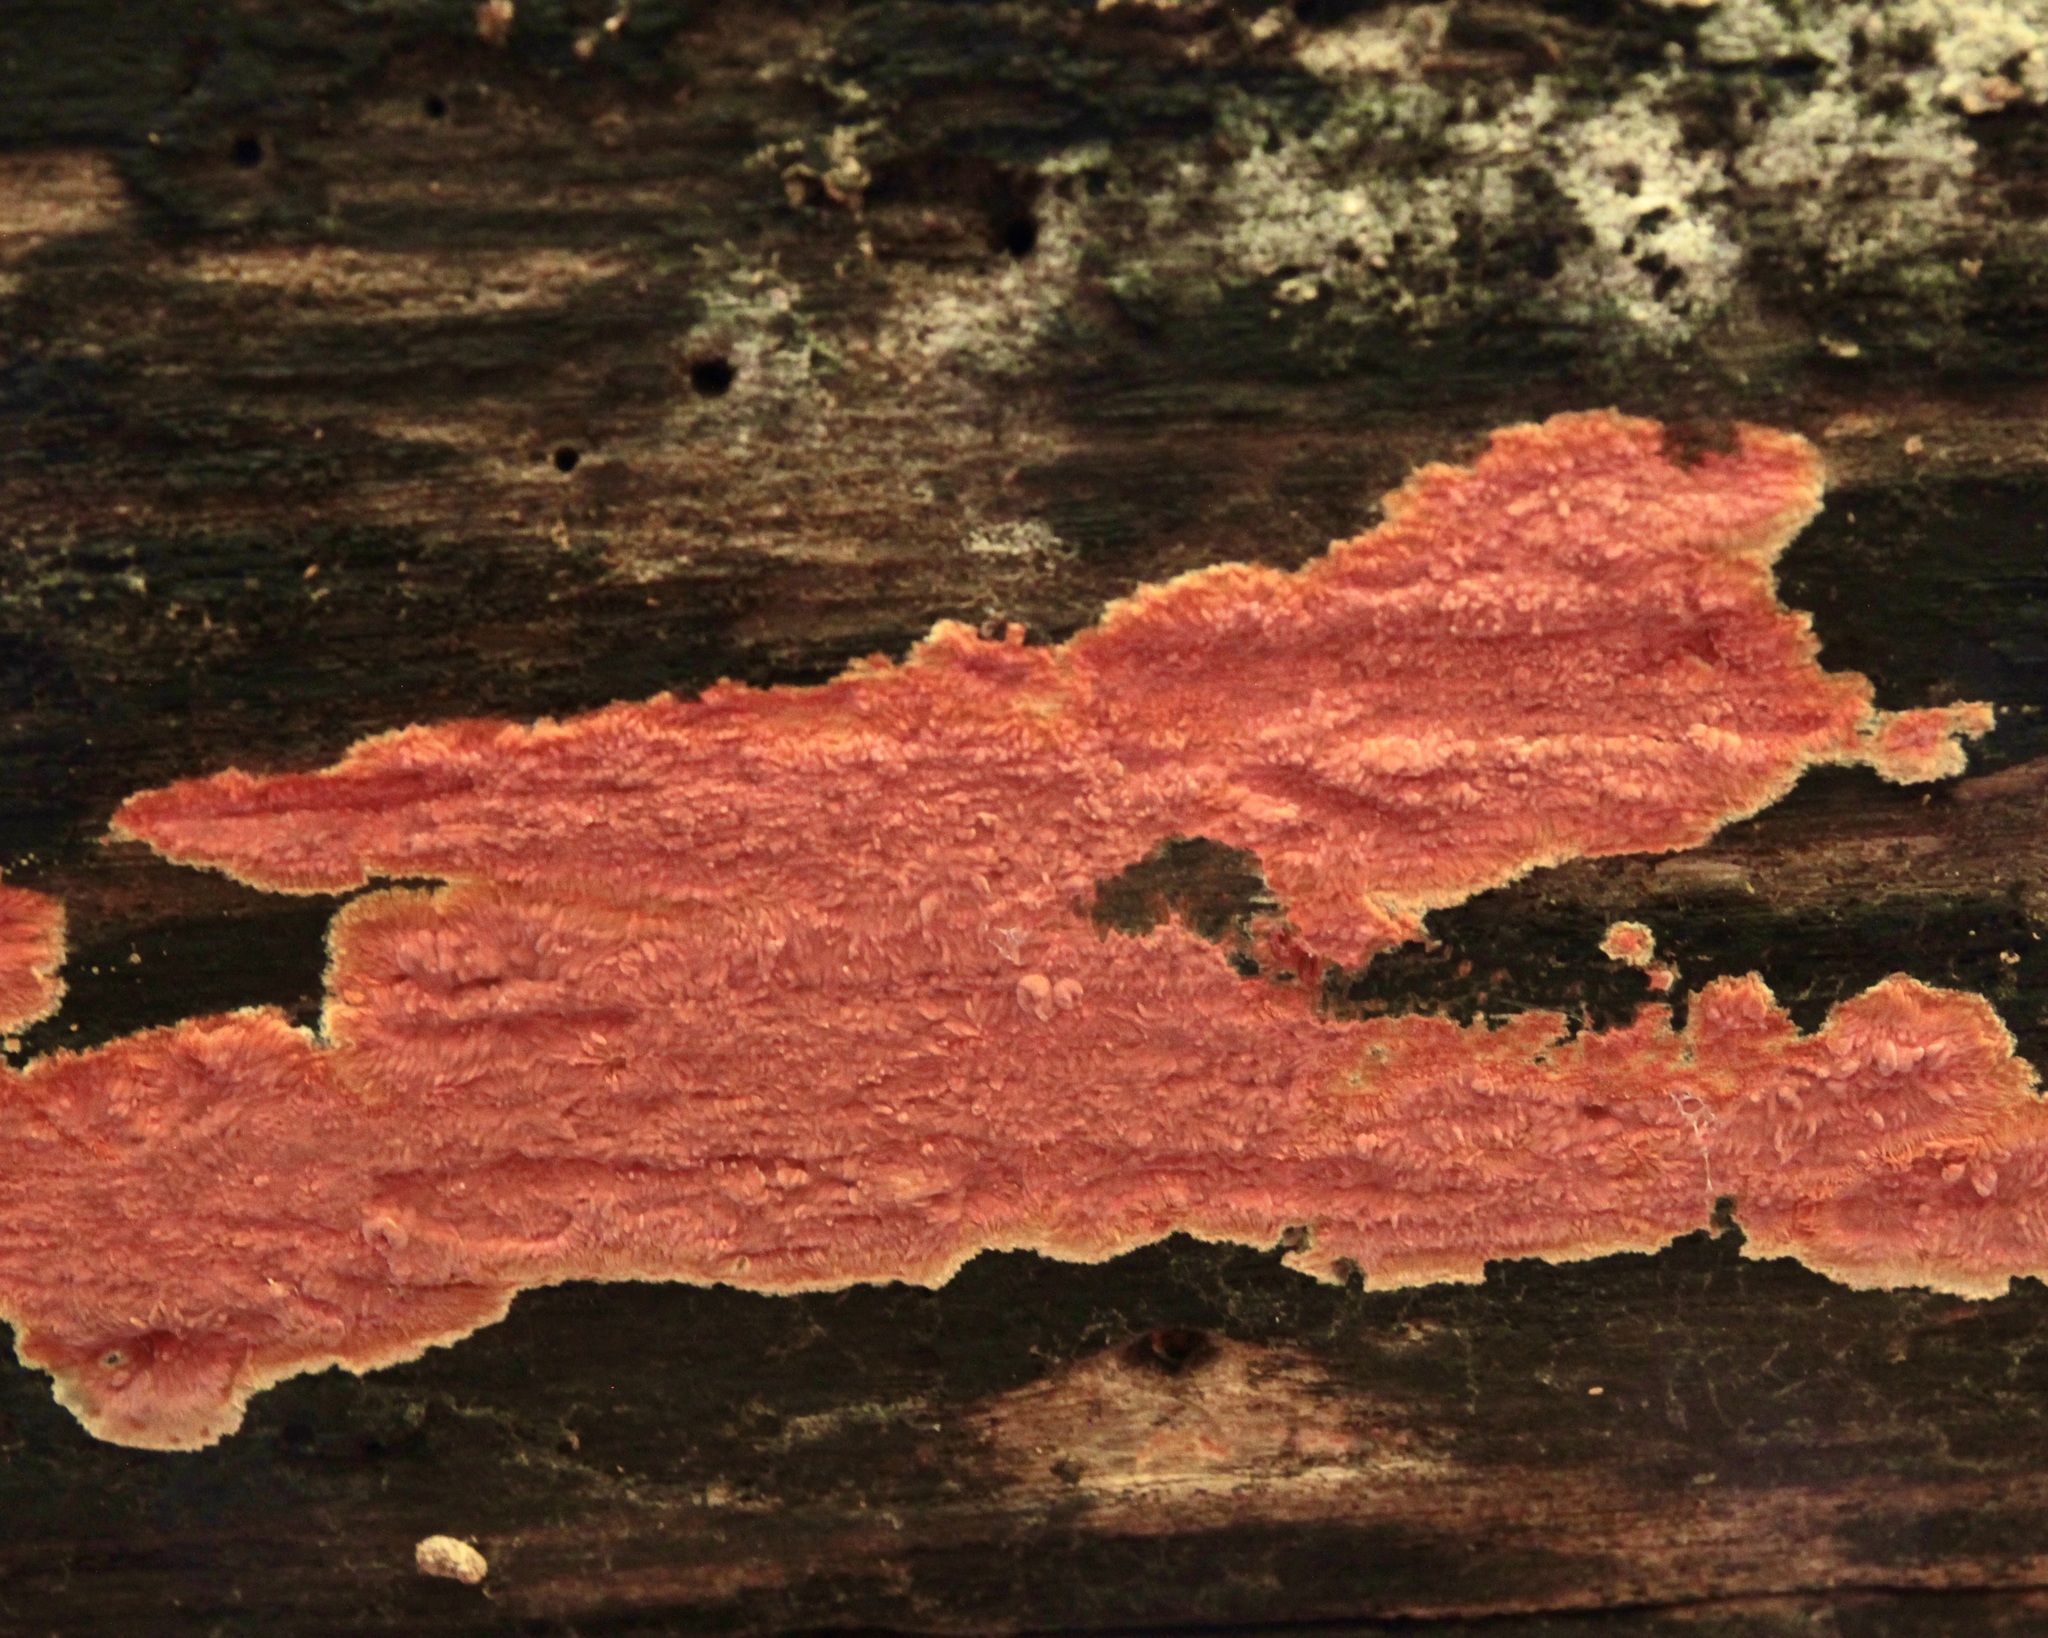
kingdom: Fungi
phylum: Basidiomycota
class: Agaricomycetes
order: Polyporales
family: Meruliaceae
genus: Phlebia
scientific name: Phlebia coccineofulva
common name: Scarlet waxcrust
